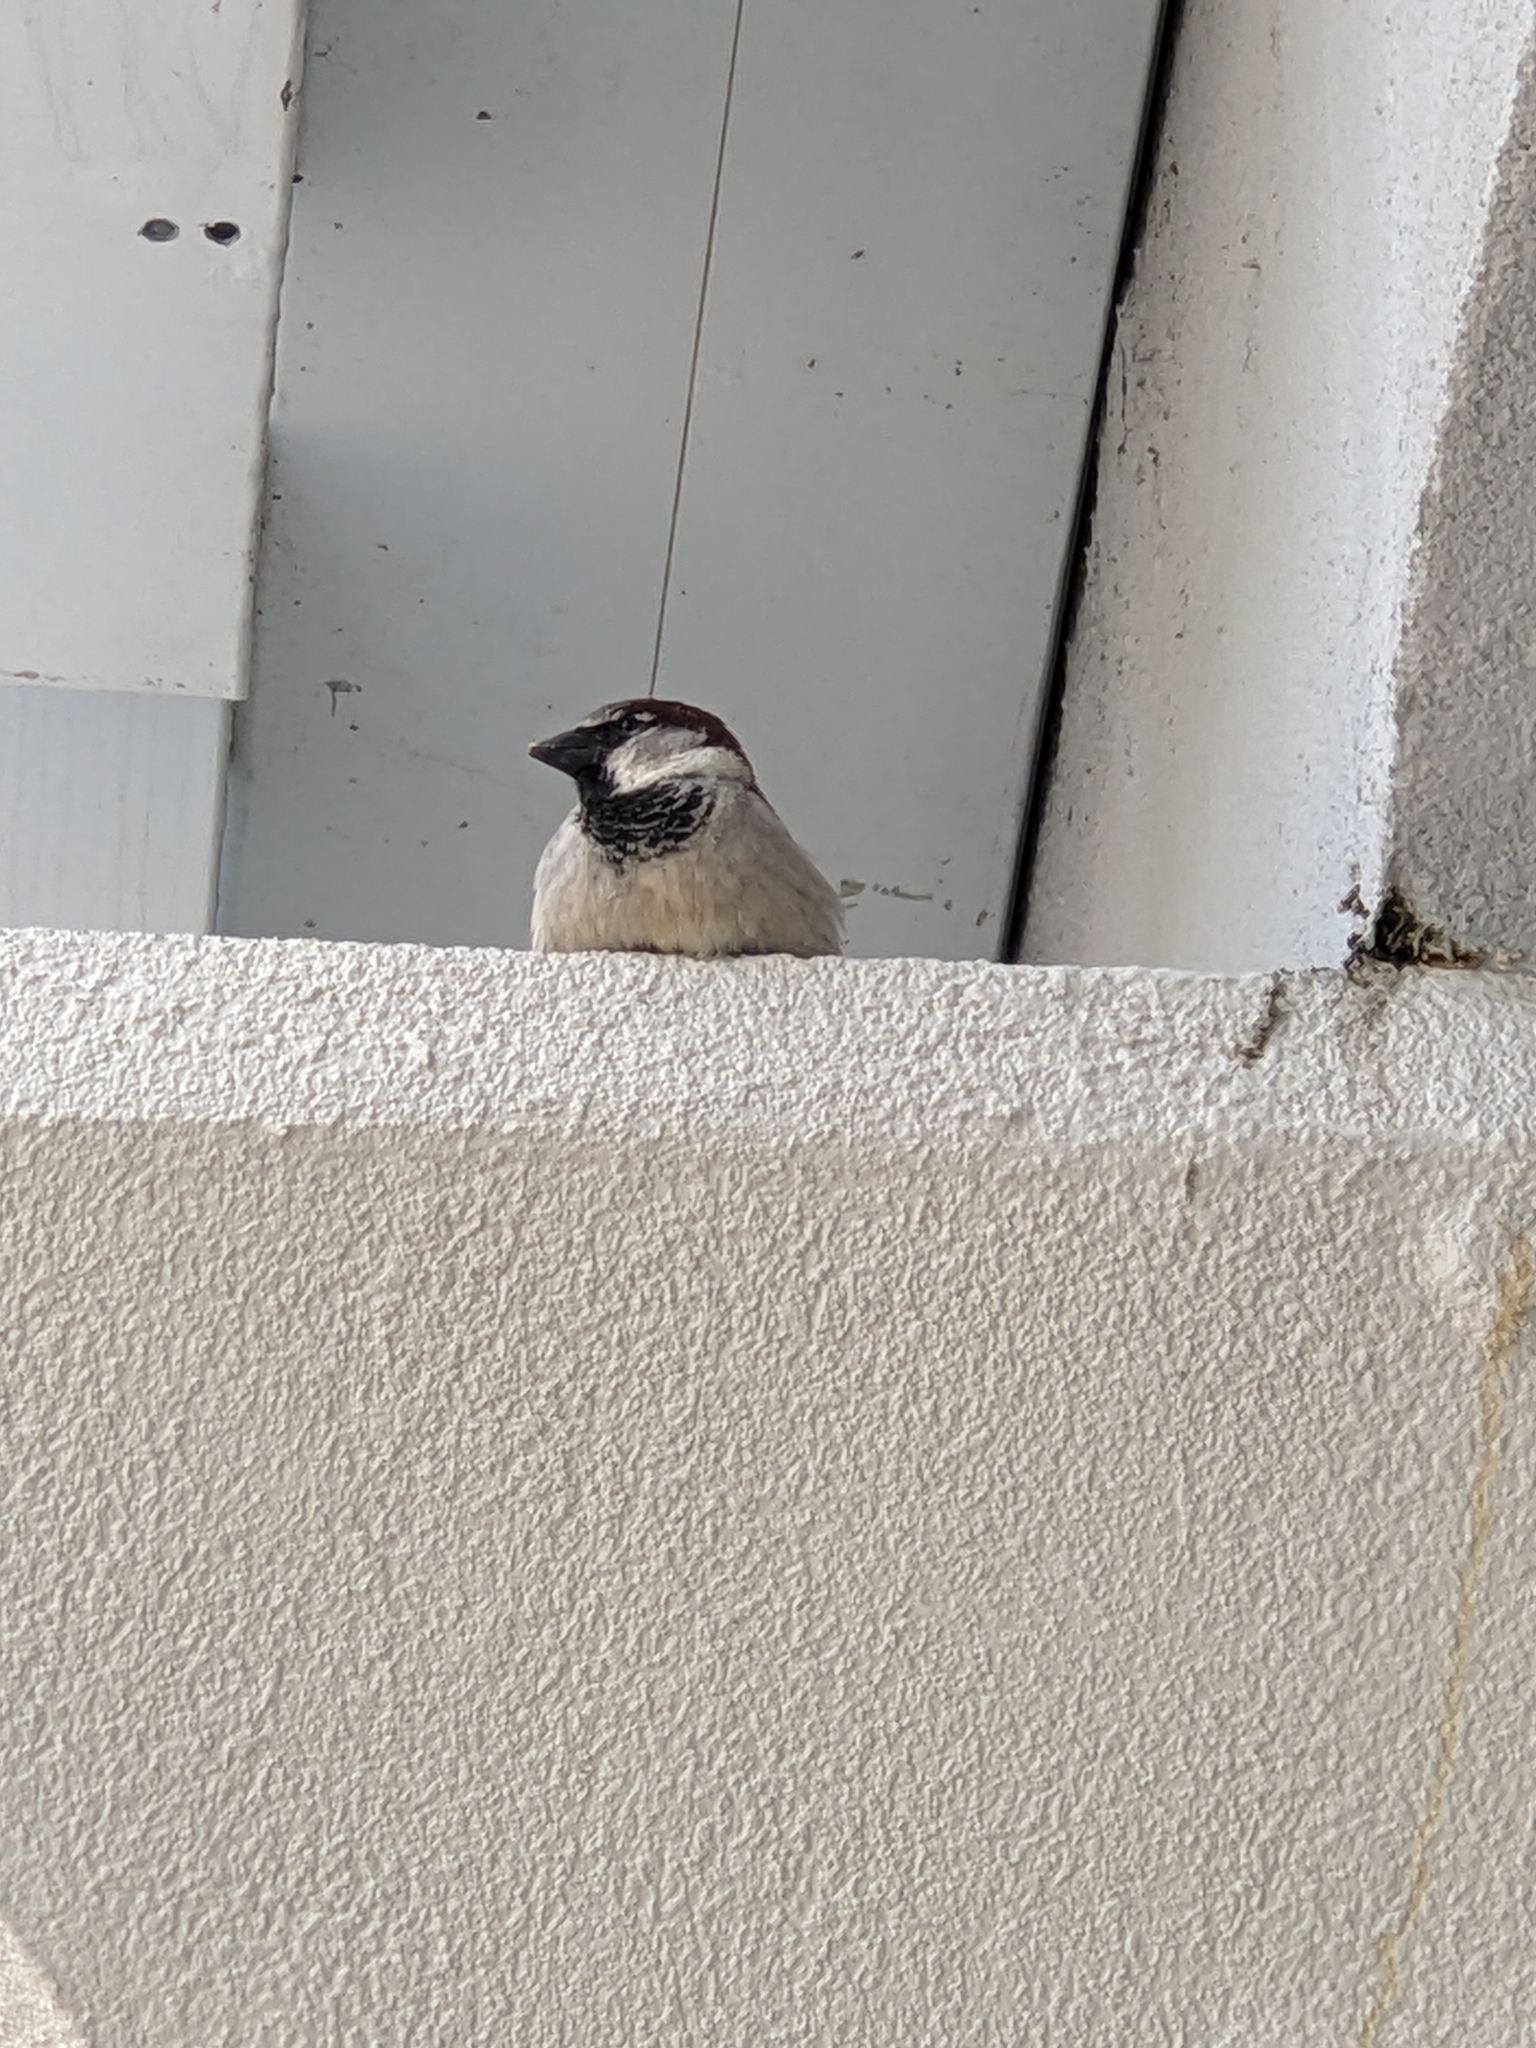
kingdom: Animalia
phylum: Chordata
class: Aves
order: Passeriformes
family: Passeridae
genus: Passer
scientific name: Passer domesticus
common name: House sparrow
